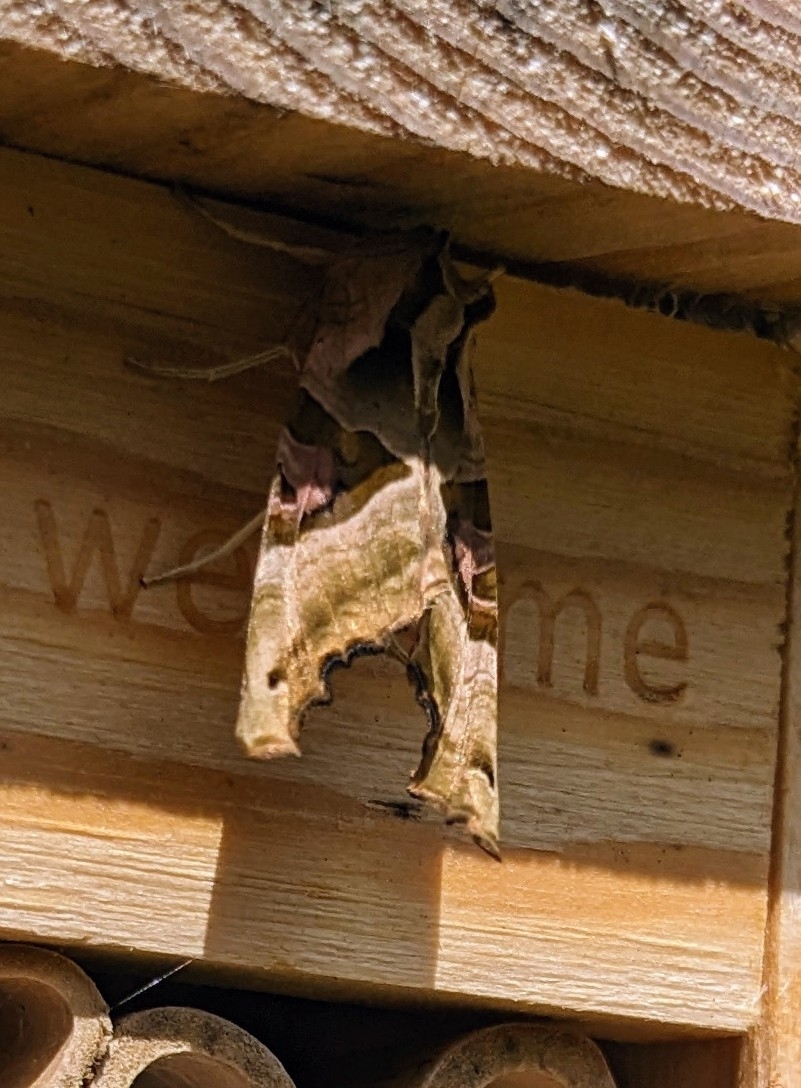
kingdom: Animalia
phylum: Arthropoda
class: Insecta
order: Lepidoptera
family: Noctuidae
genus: Phlogophora
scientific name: Phlogophora meticulosa
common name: Angle shades
